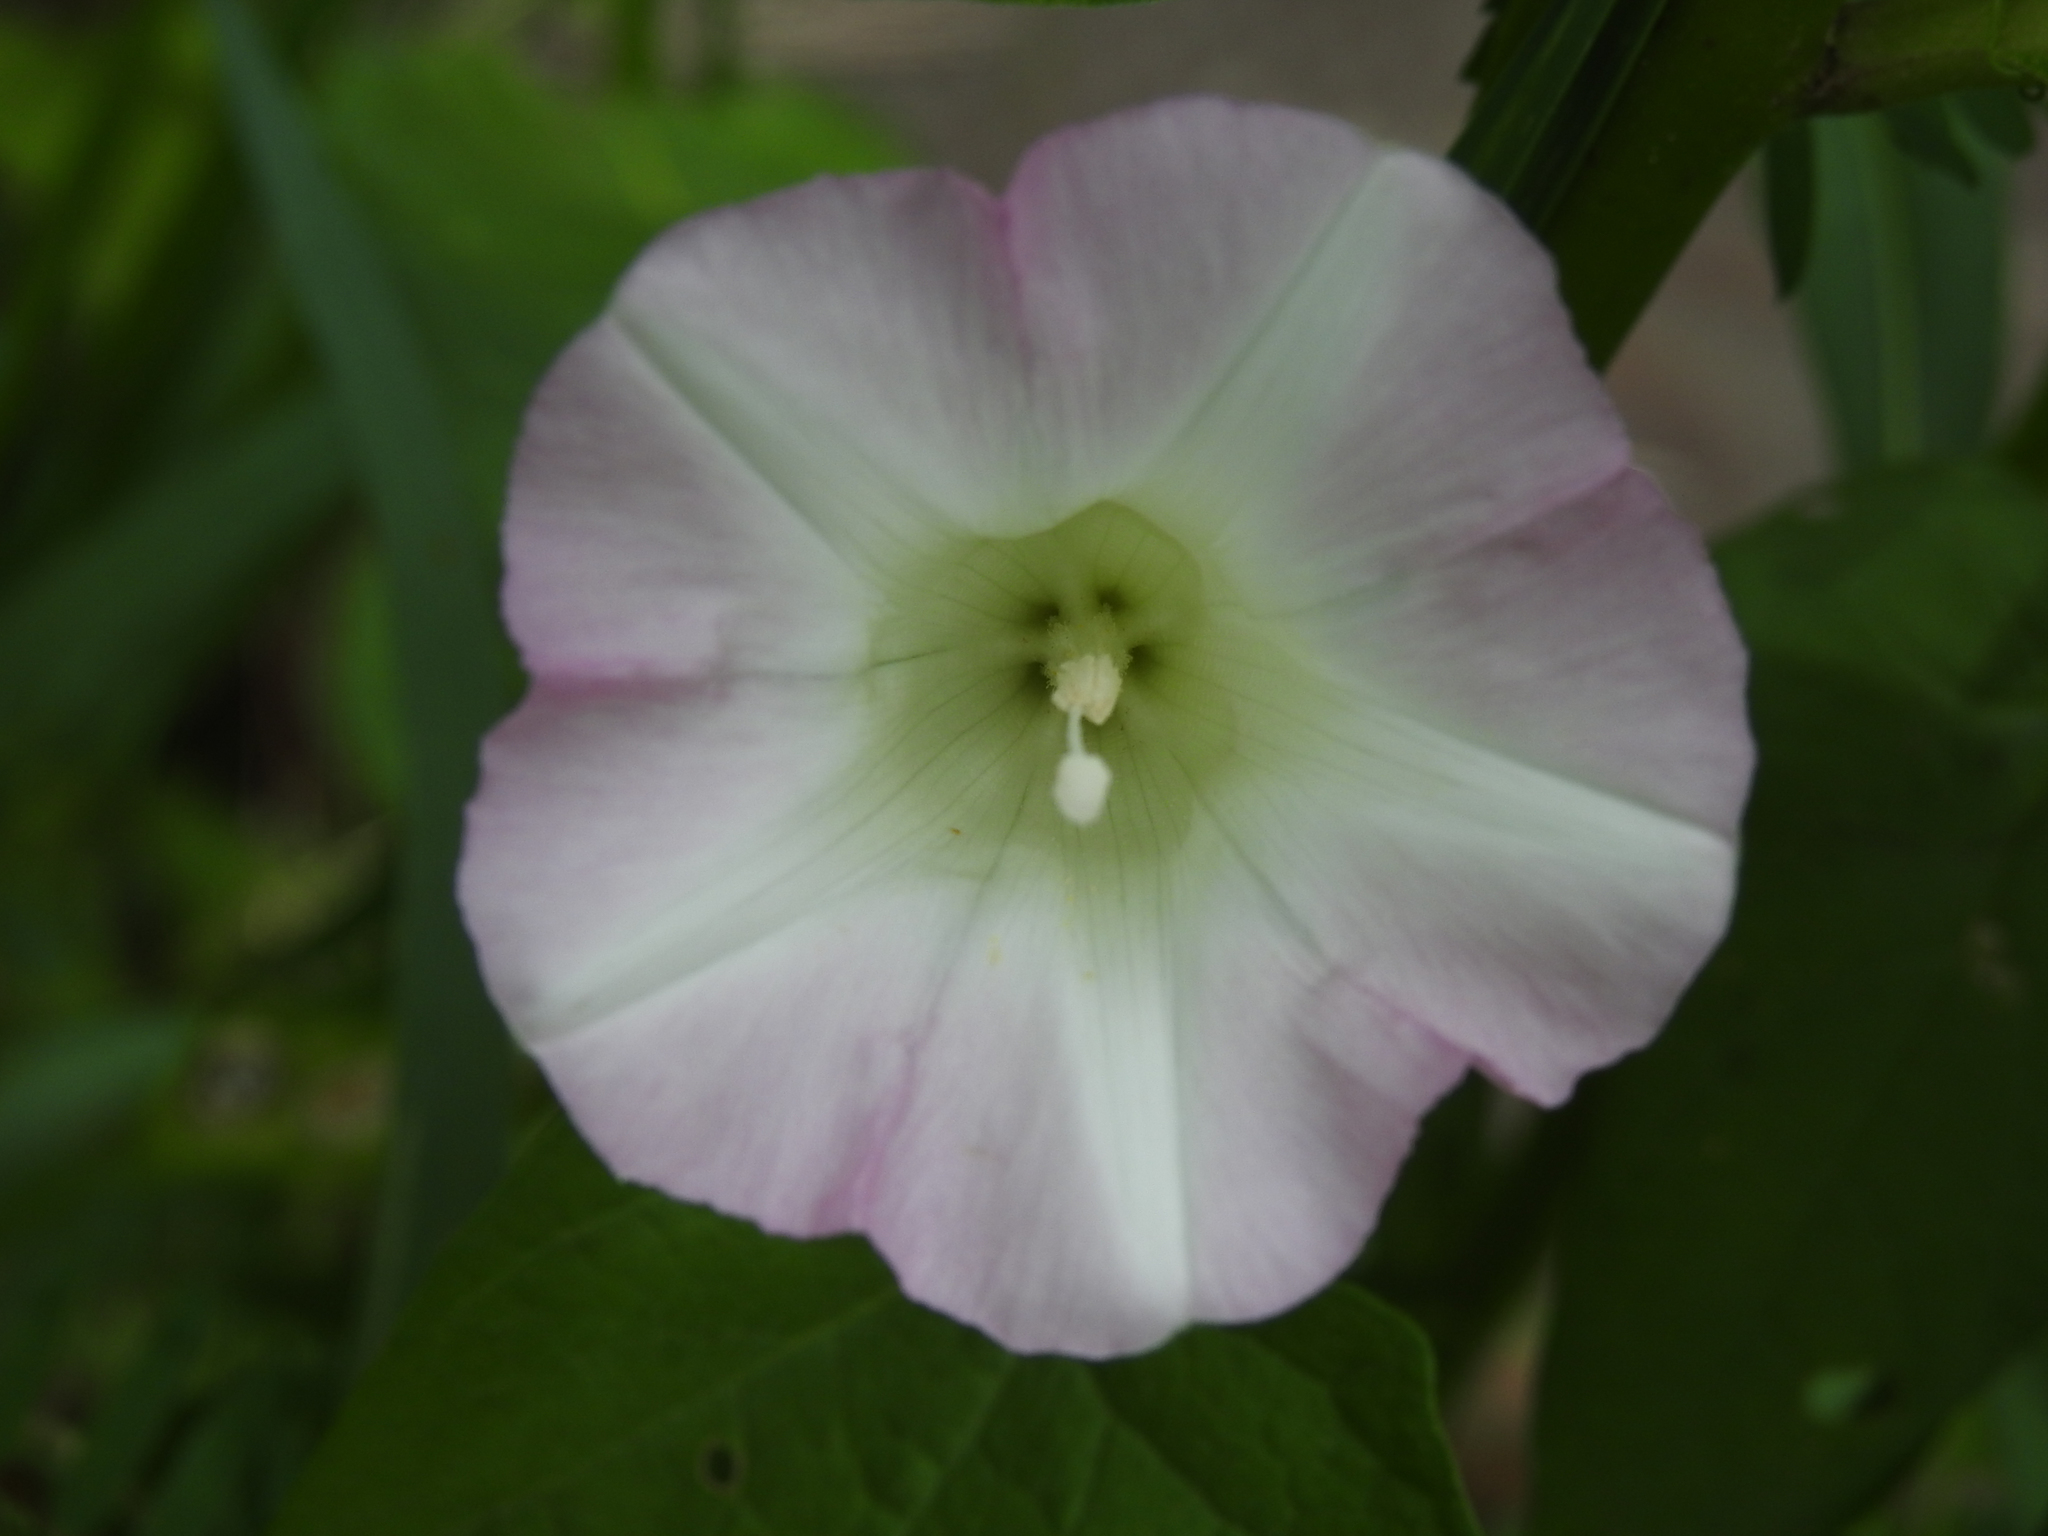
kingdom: Plantae
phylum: Tracheophyta
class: Magnoliopsida
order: Solanales
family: Convolvulaceae
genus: Calystegia
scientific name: Calystegia sepium
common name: Hedge bindweed
